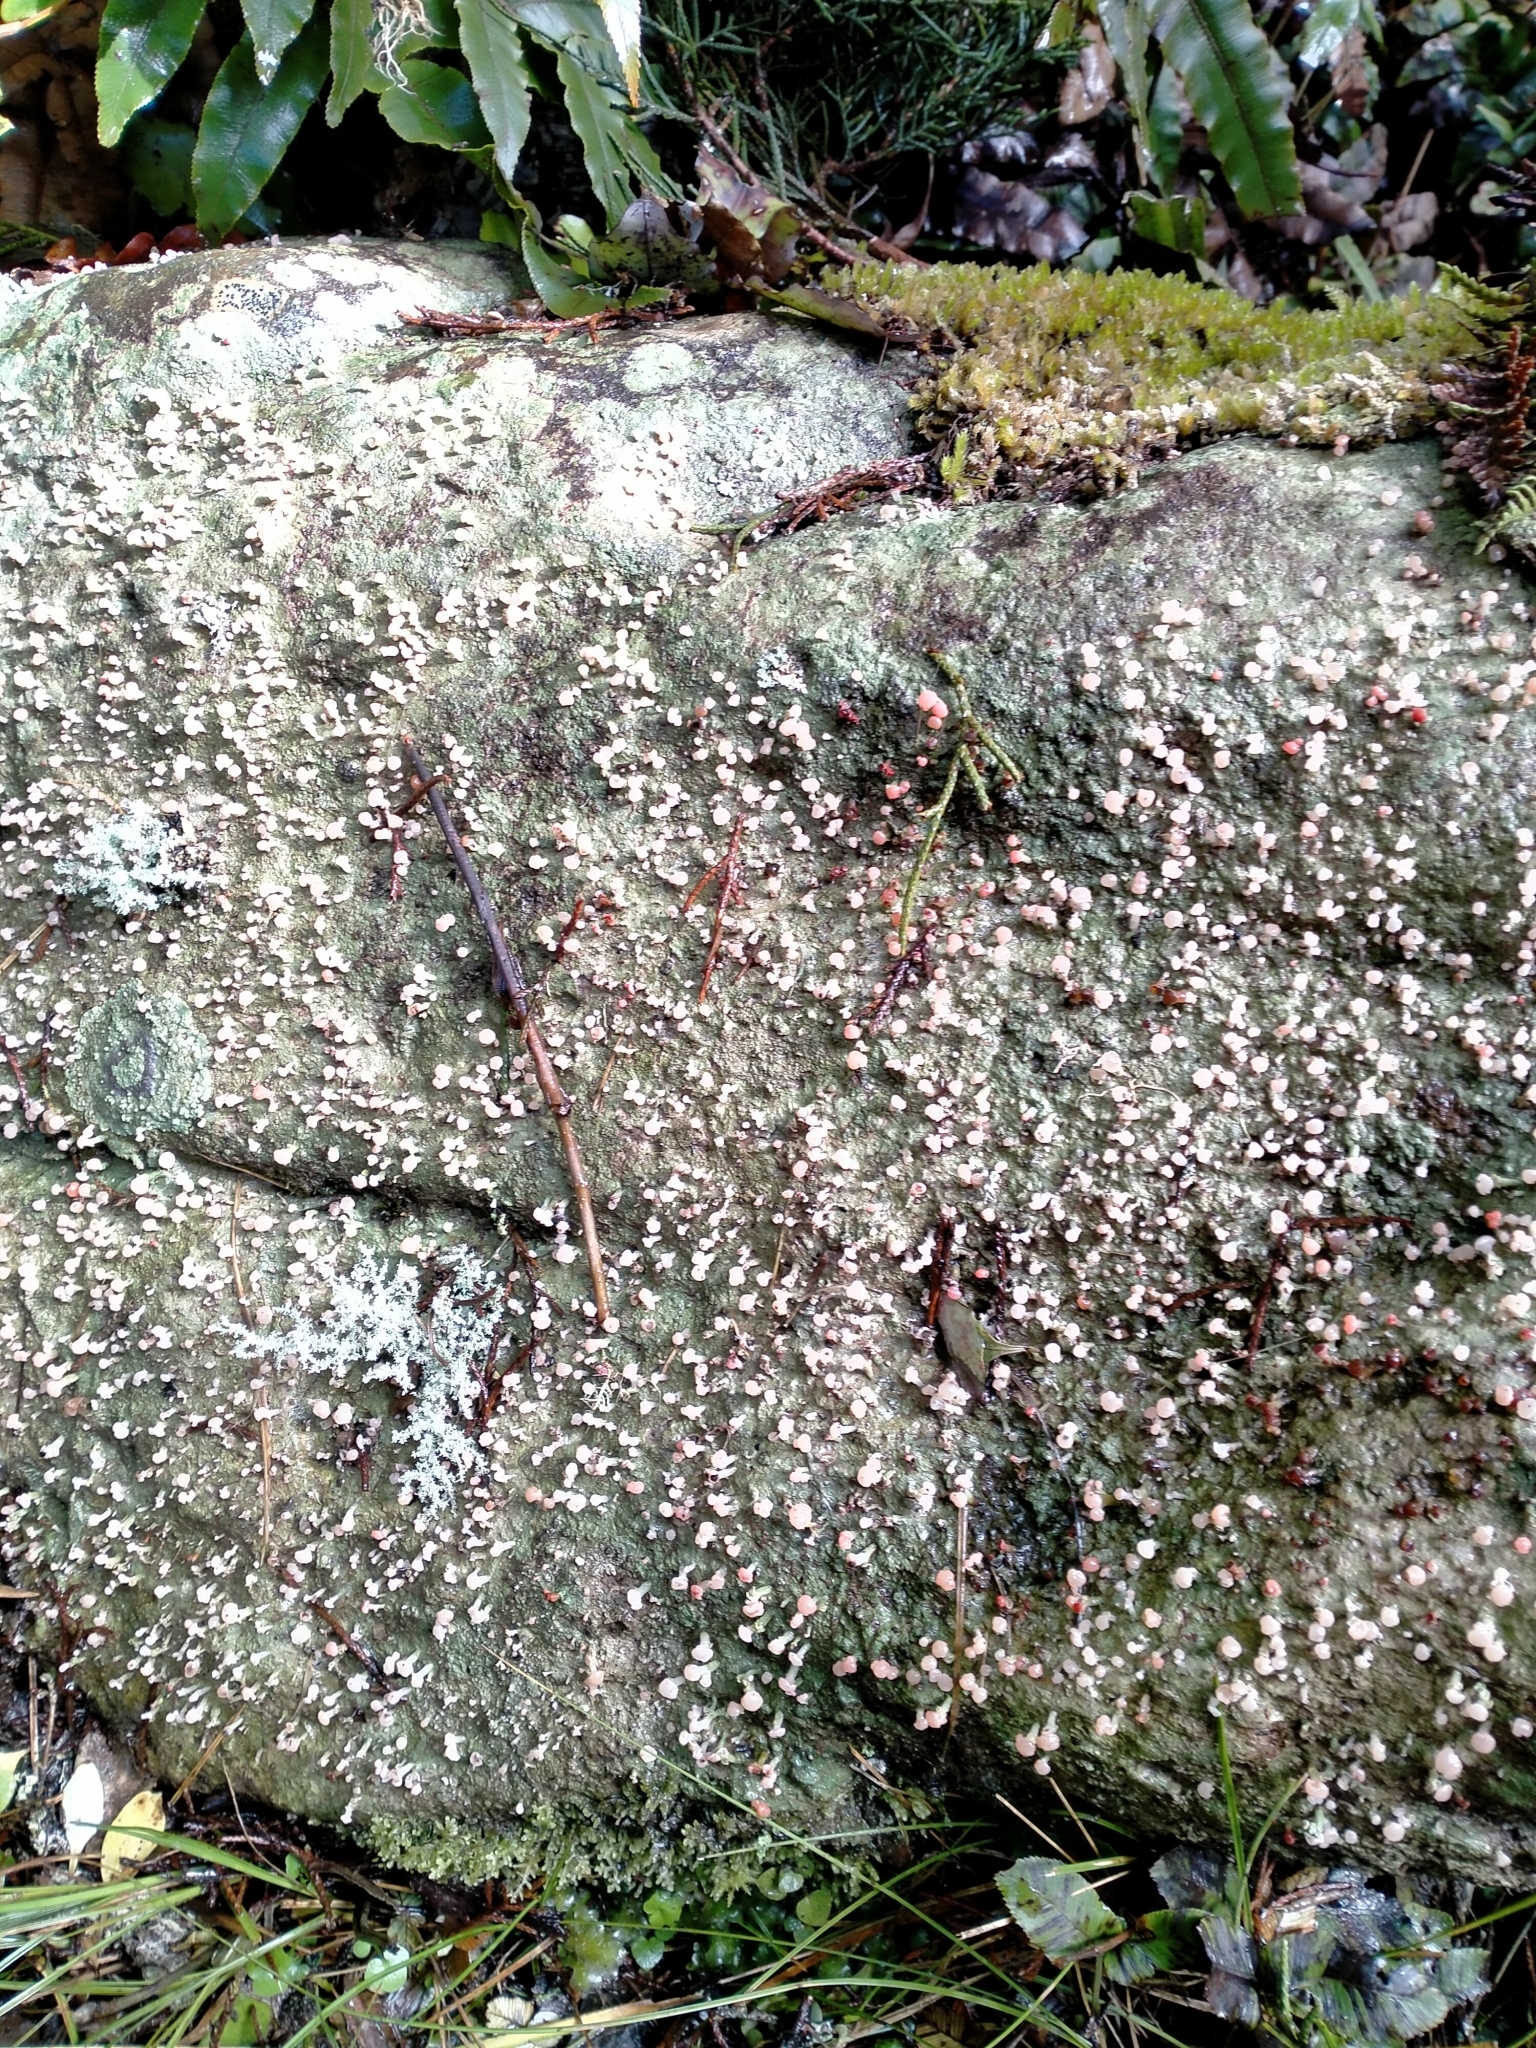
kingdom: Fungi
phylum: Ascomycota
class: Lecanoromycetes
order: Baeomycetales
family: Baeomycetaceae
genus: Baeomyces
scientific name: Baeomyces heteromorphus
